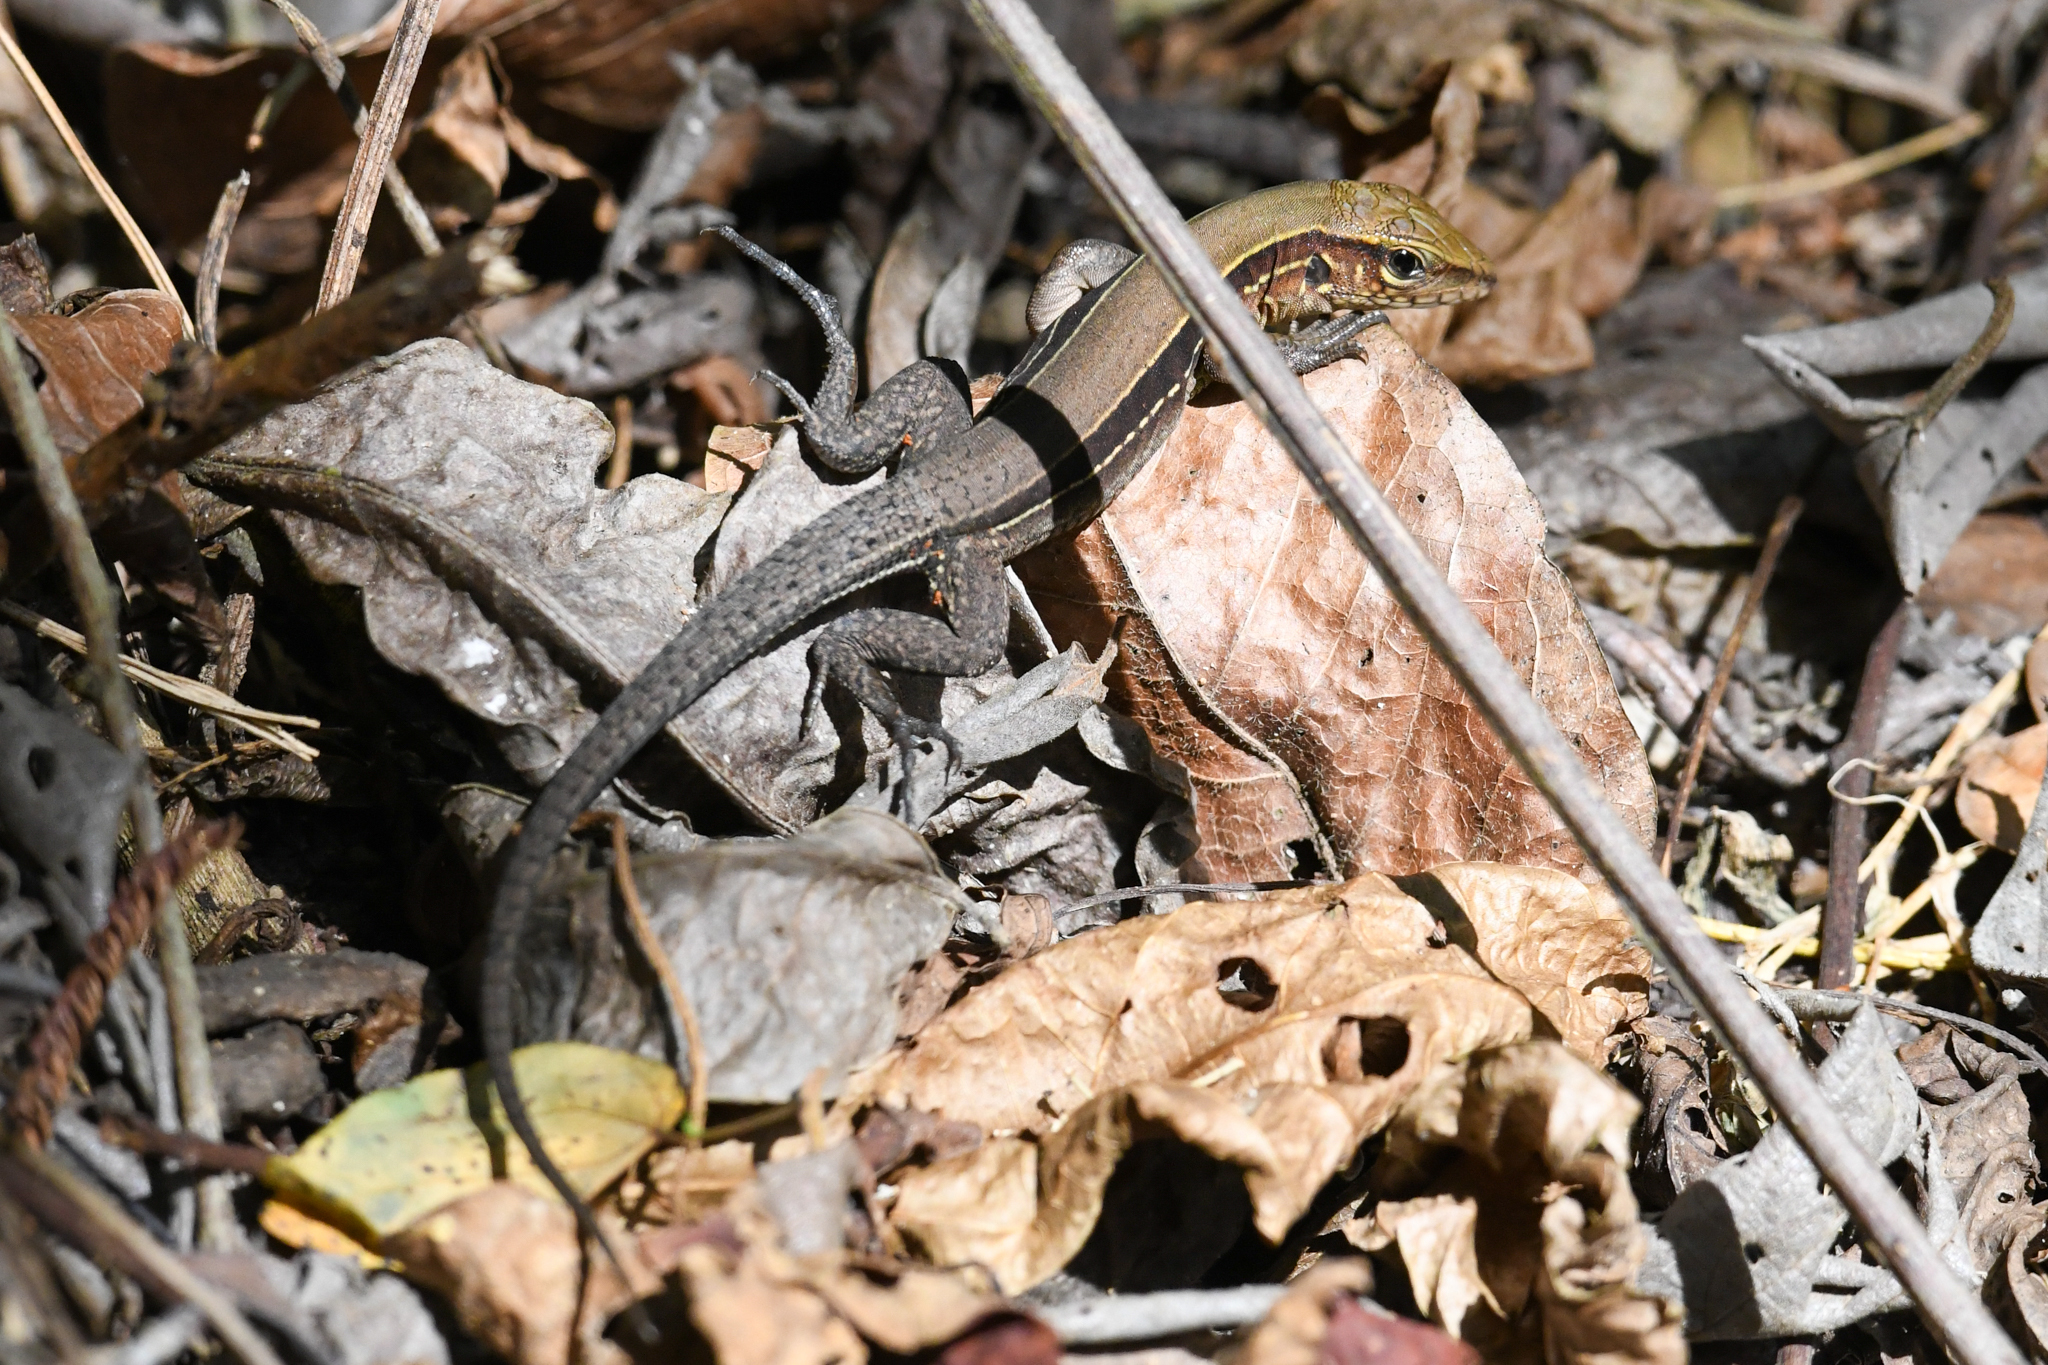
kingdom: Animalia
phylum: Chordata
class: Squamata
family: Teiidae
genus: Holcosus
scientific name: Holcosus quadrilineatus
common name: Four-lined ameiva
